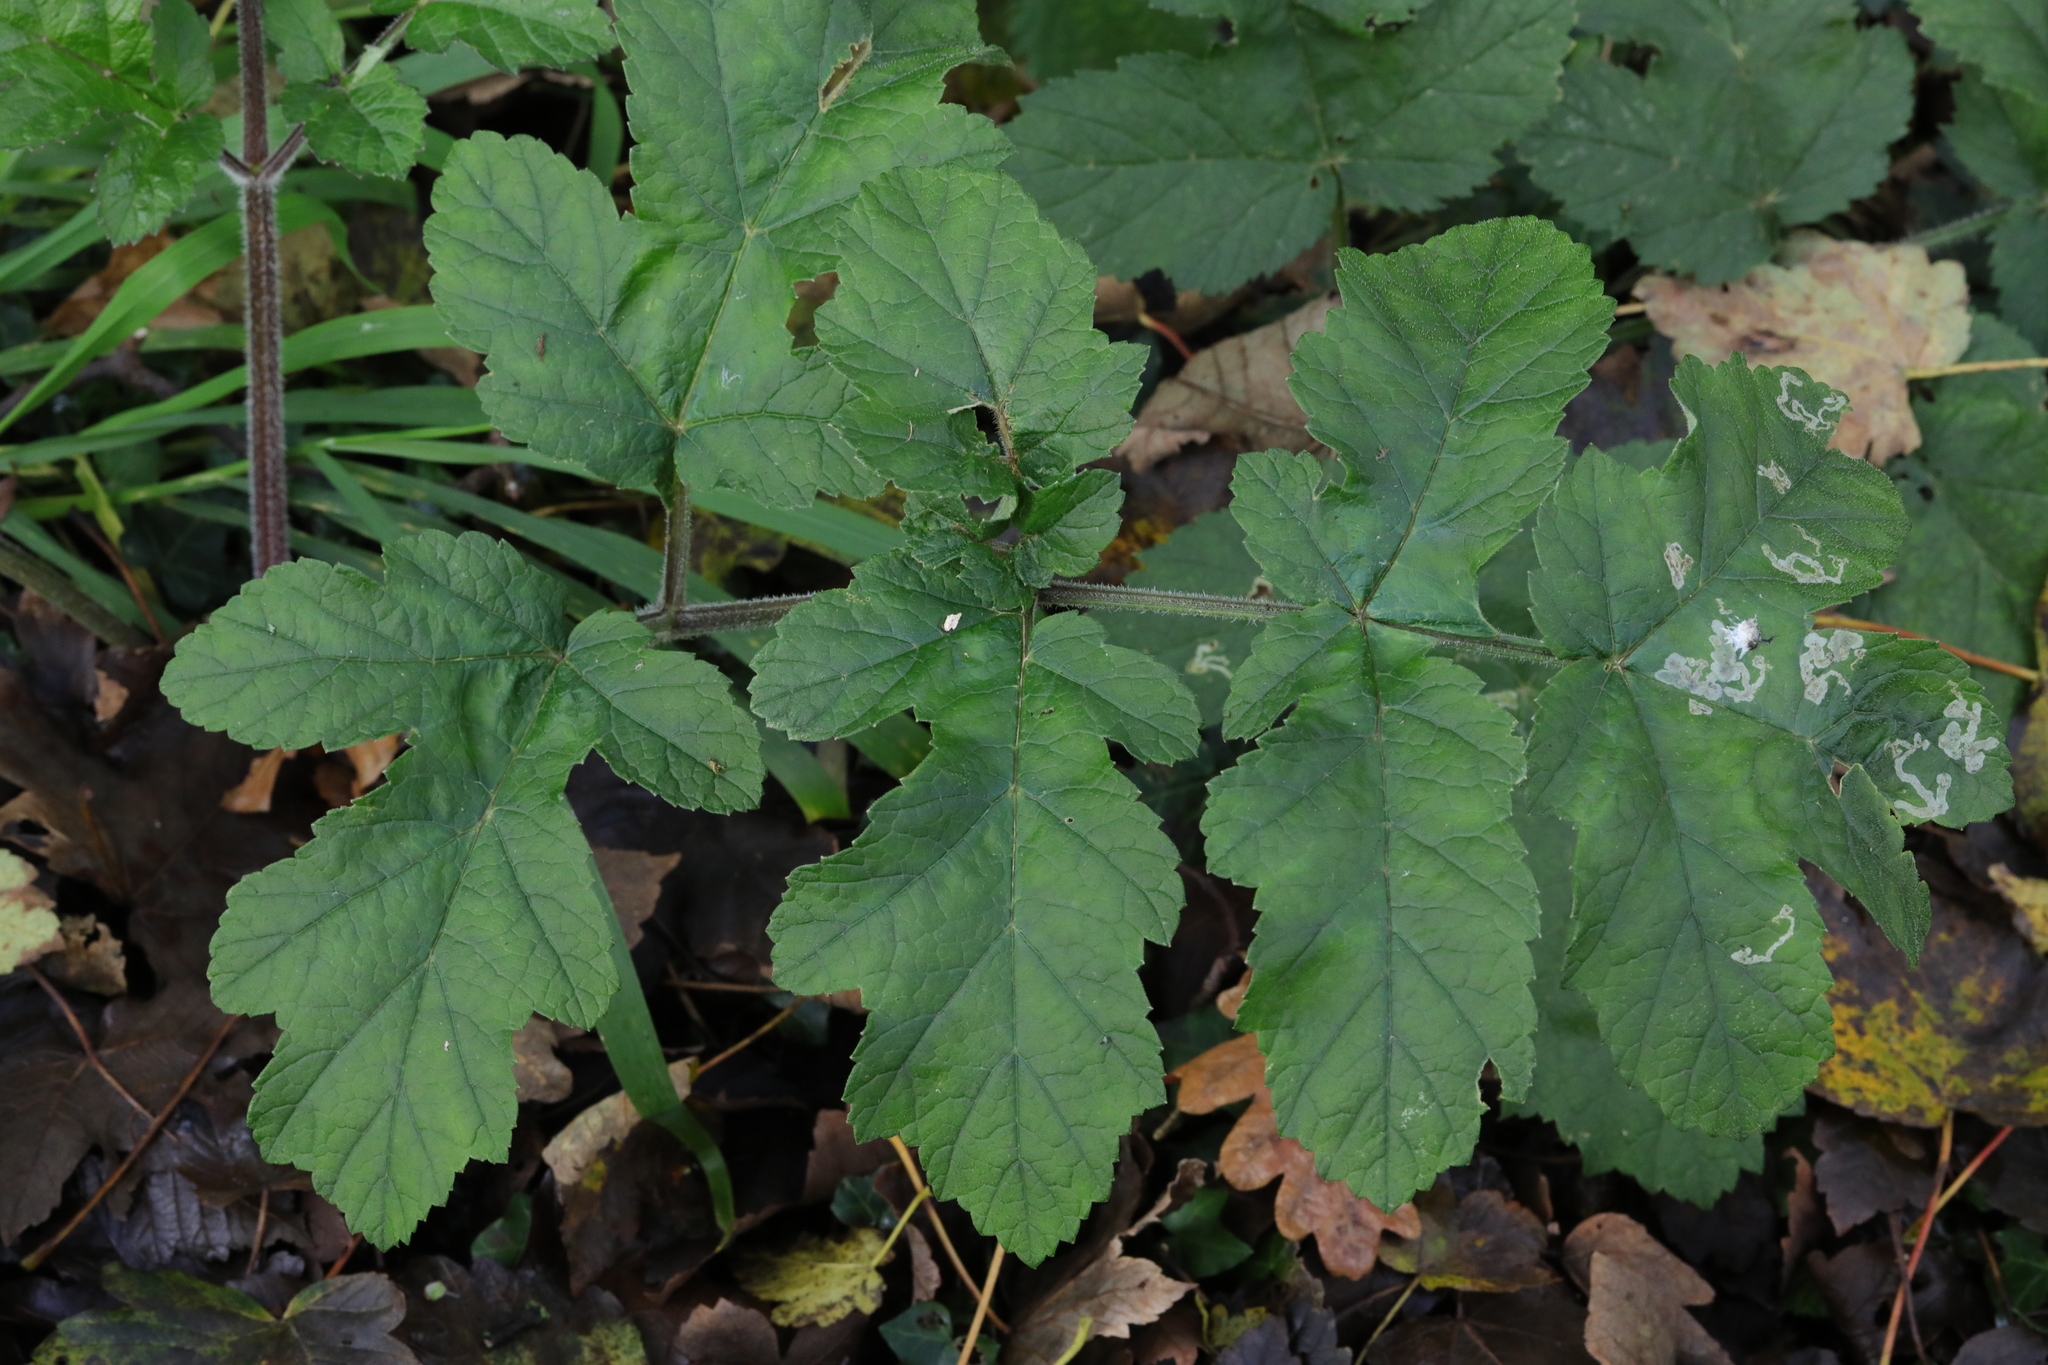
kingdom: Plantae
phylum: Tracheophyta
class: Magnoliopsida
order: Apiales
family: Apiaceae
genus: Heracleum
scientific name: Heracleum sphondylium
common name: Hogweed
